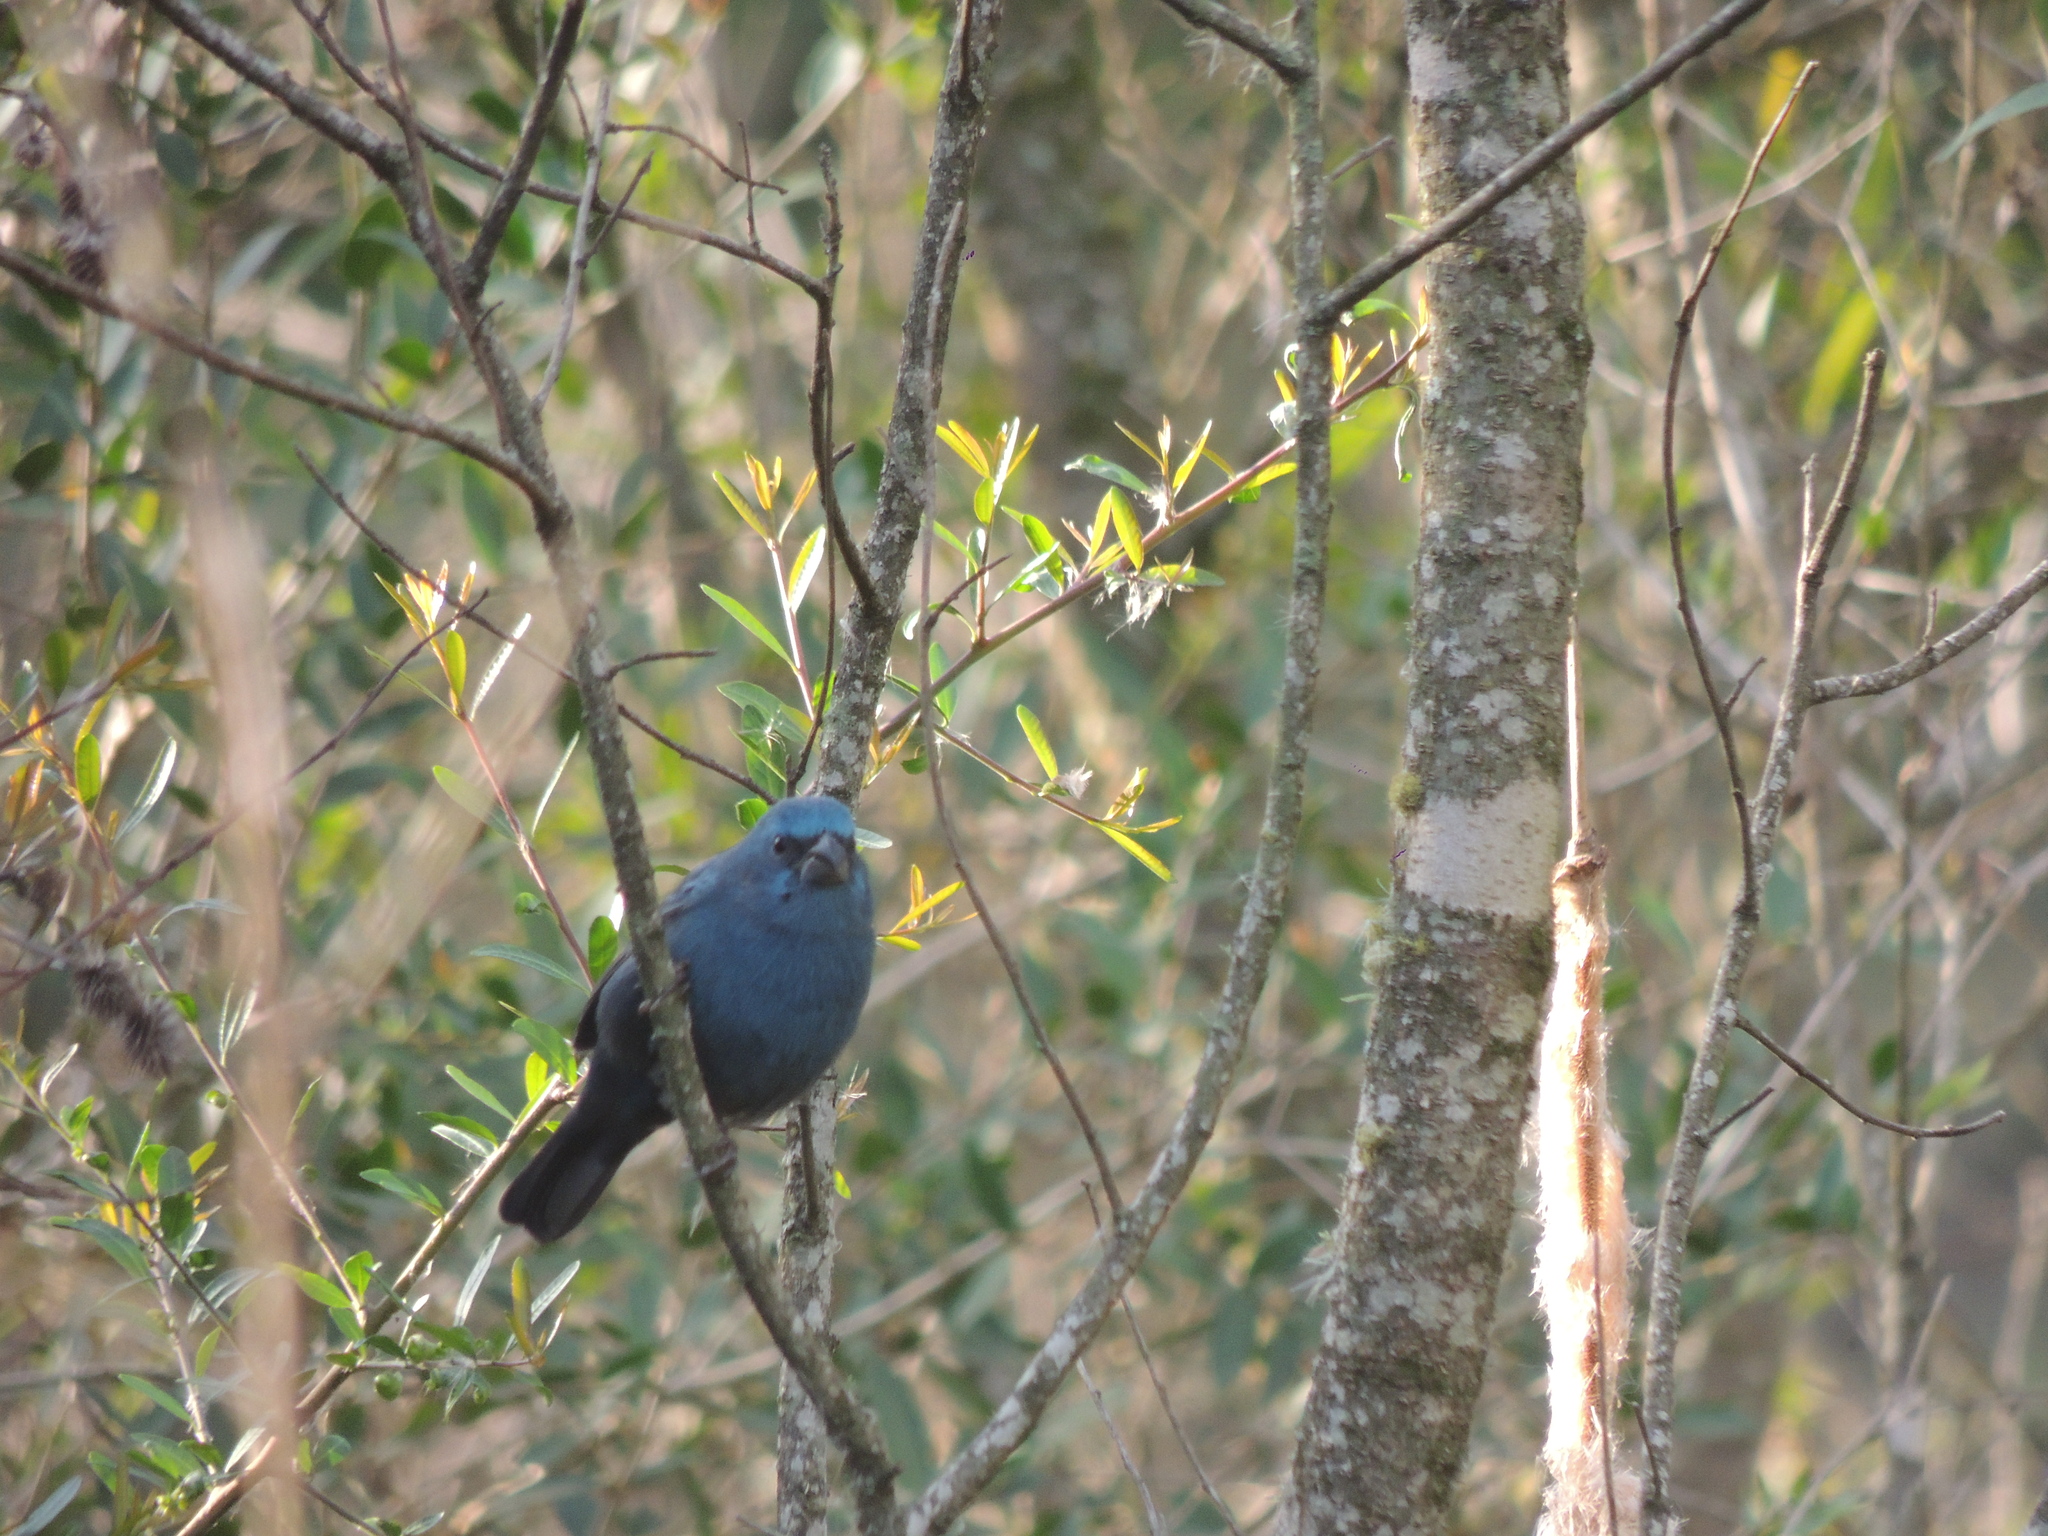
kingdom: Animalia
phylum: Chordata
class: Aves
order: Passeriformes
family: Cardinalidae
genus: Cyanoloxia
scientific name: Cyanoloxia glaucocaerulea
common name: Glaucous-blue grosbeak
